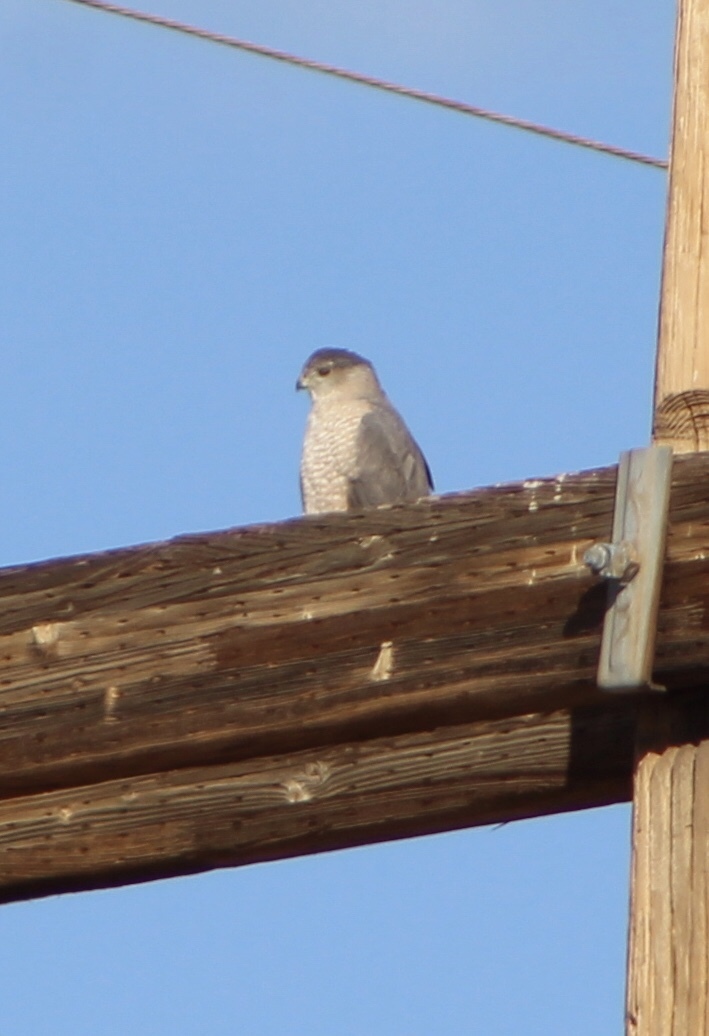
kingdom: Animalia
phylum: Chordata
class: Aves
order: Accipitriformes
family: Accipitridae
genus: Accipiter
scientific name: Accipiter cooperii
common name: Cooper's hawk
